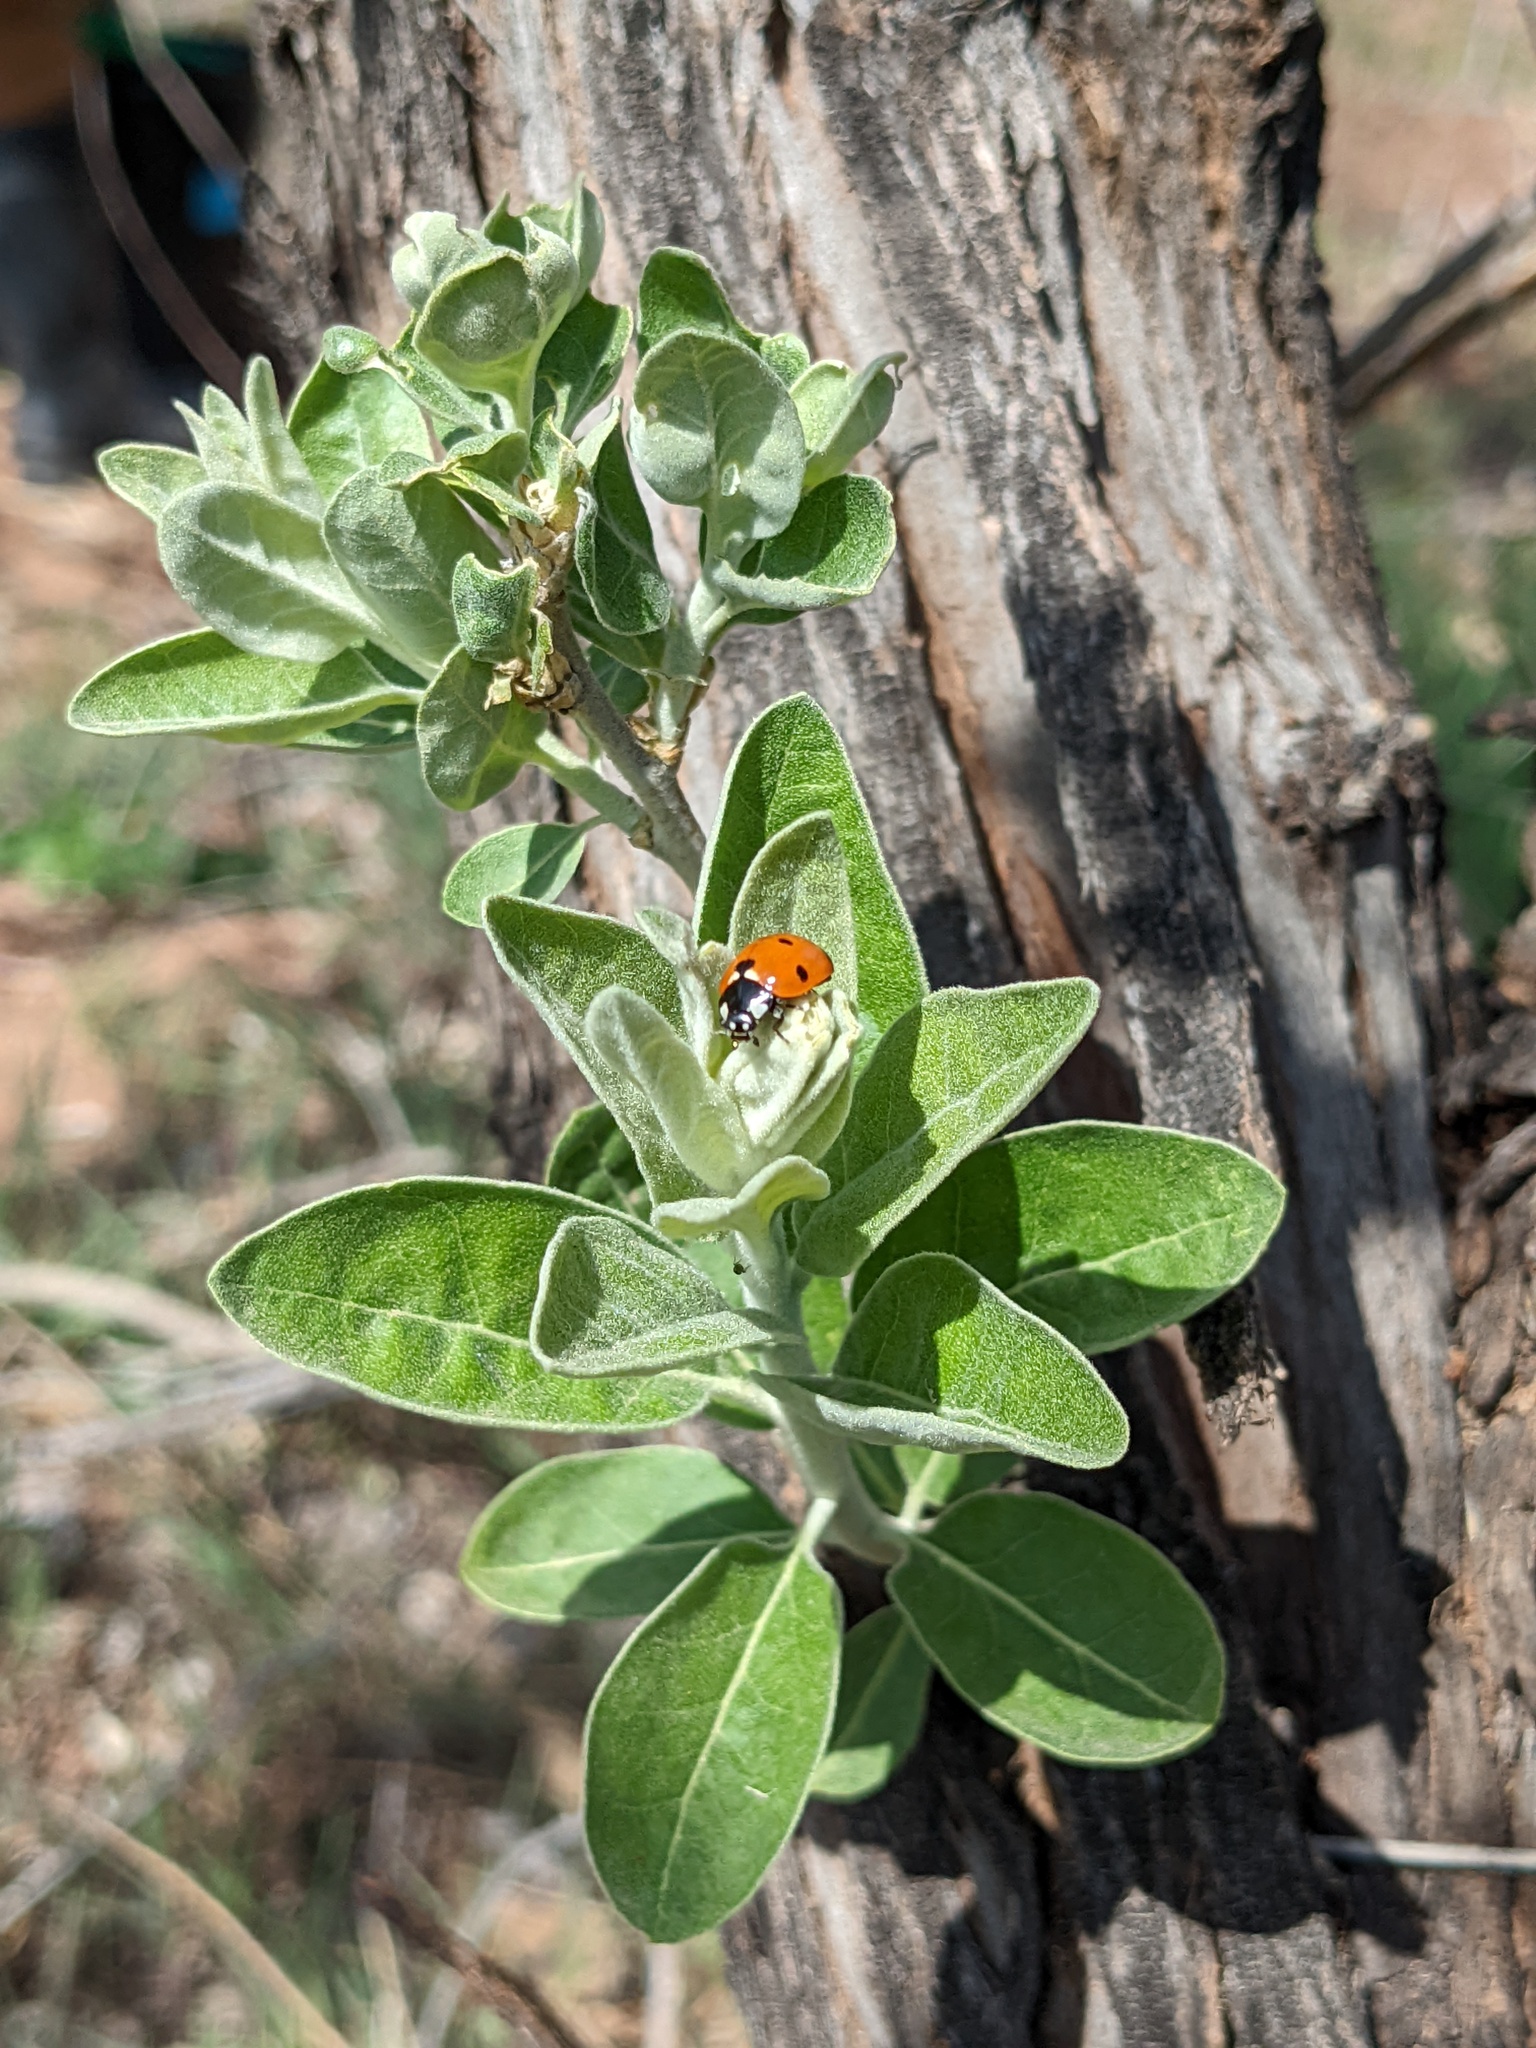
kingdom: Animalia
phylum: Arthropoda
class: Insecta
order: Coleoptera
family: Coccinellidae
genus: Coccinella
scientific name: Coccinella septempunctata
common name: Sevenspotted lady beetle
